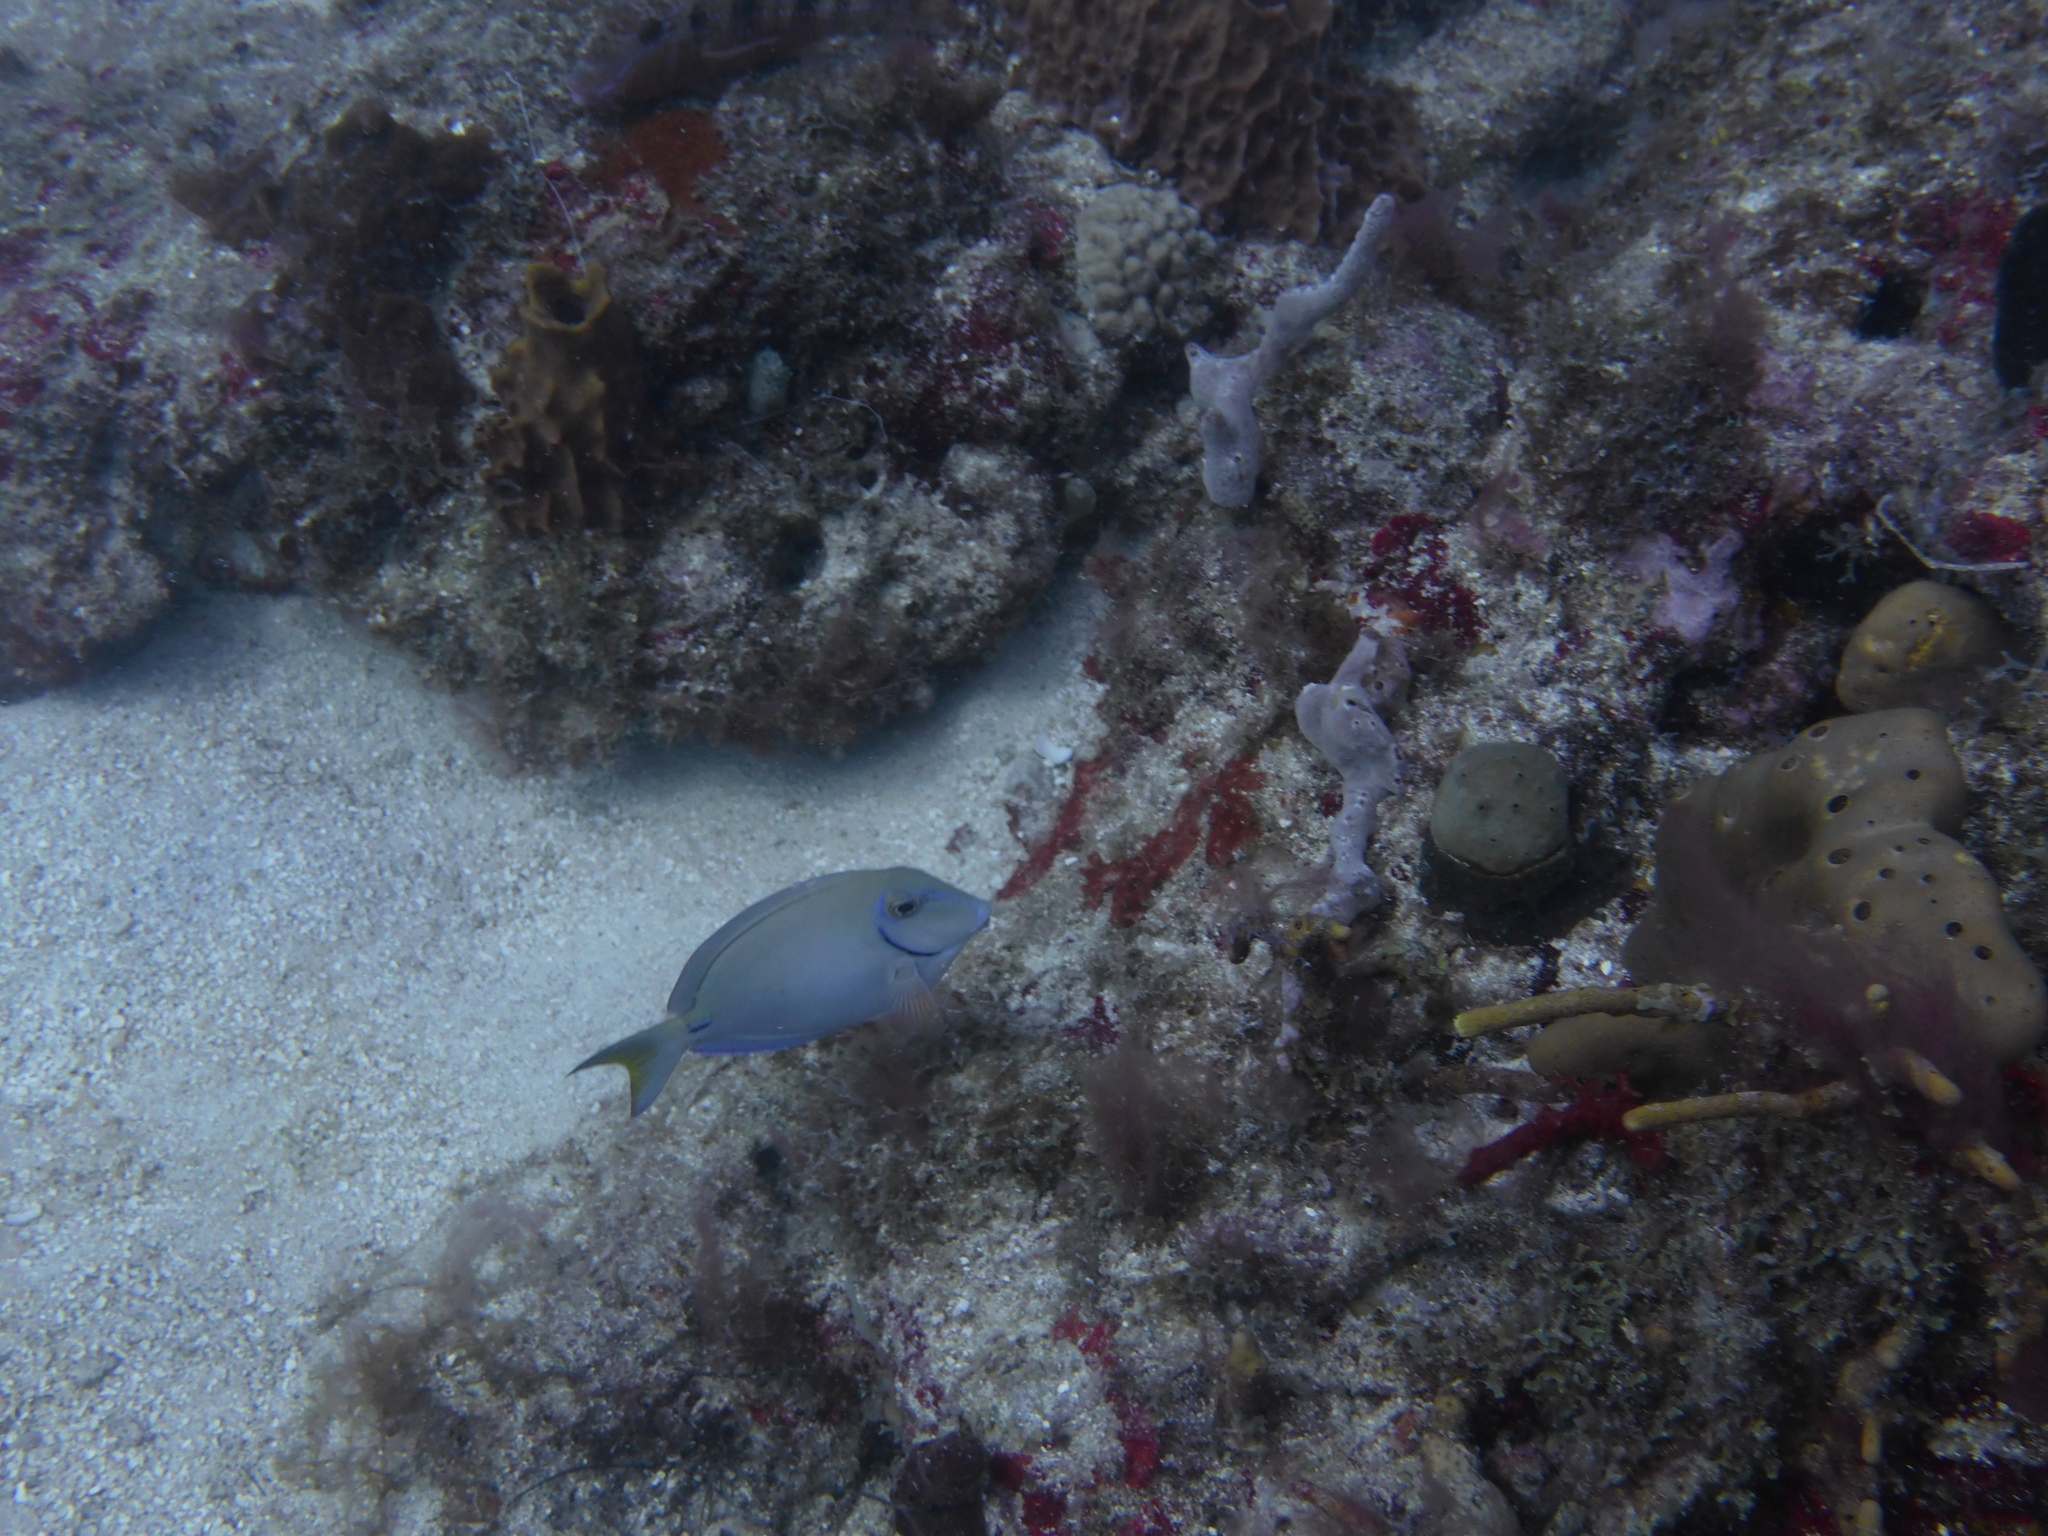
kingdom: Animalia
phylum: Chordata
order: Perciformes
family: Acanthuridae
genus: Acanthurus
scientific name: Acanthurus bahianus
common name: Ocean surgeon
